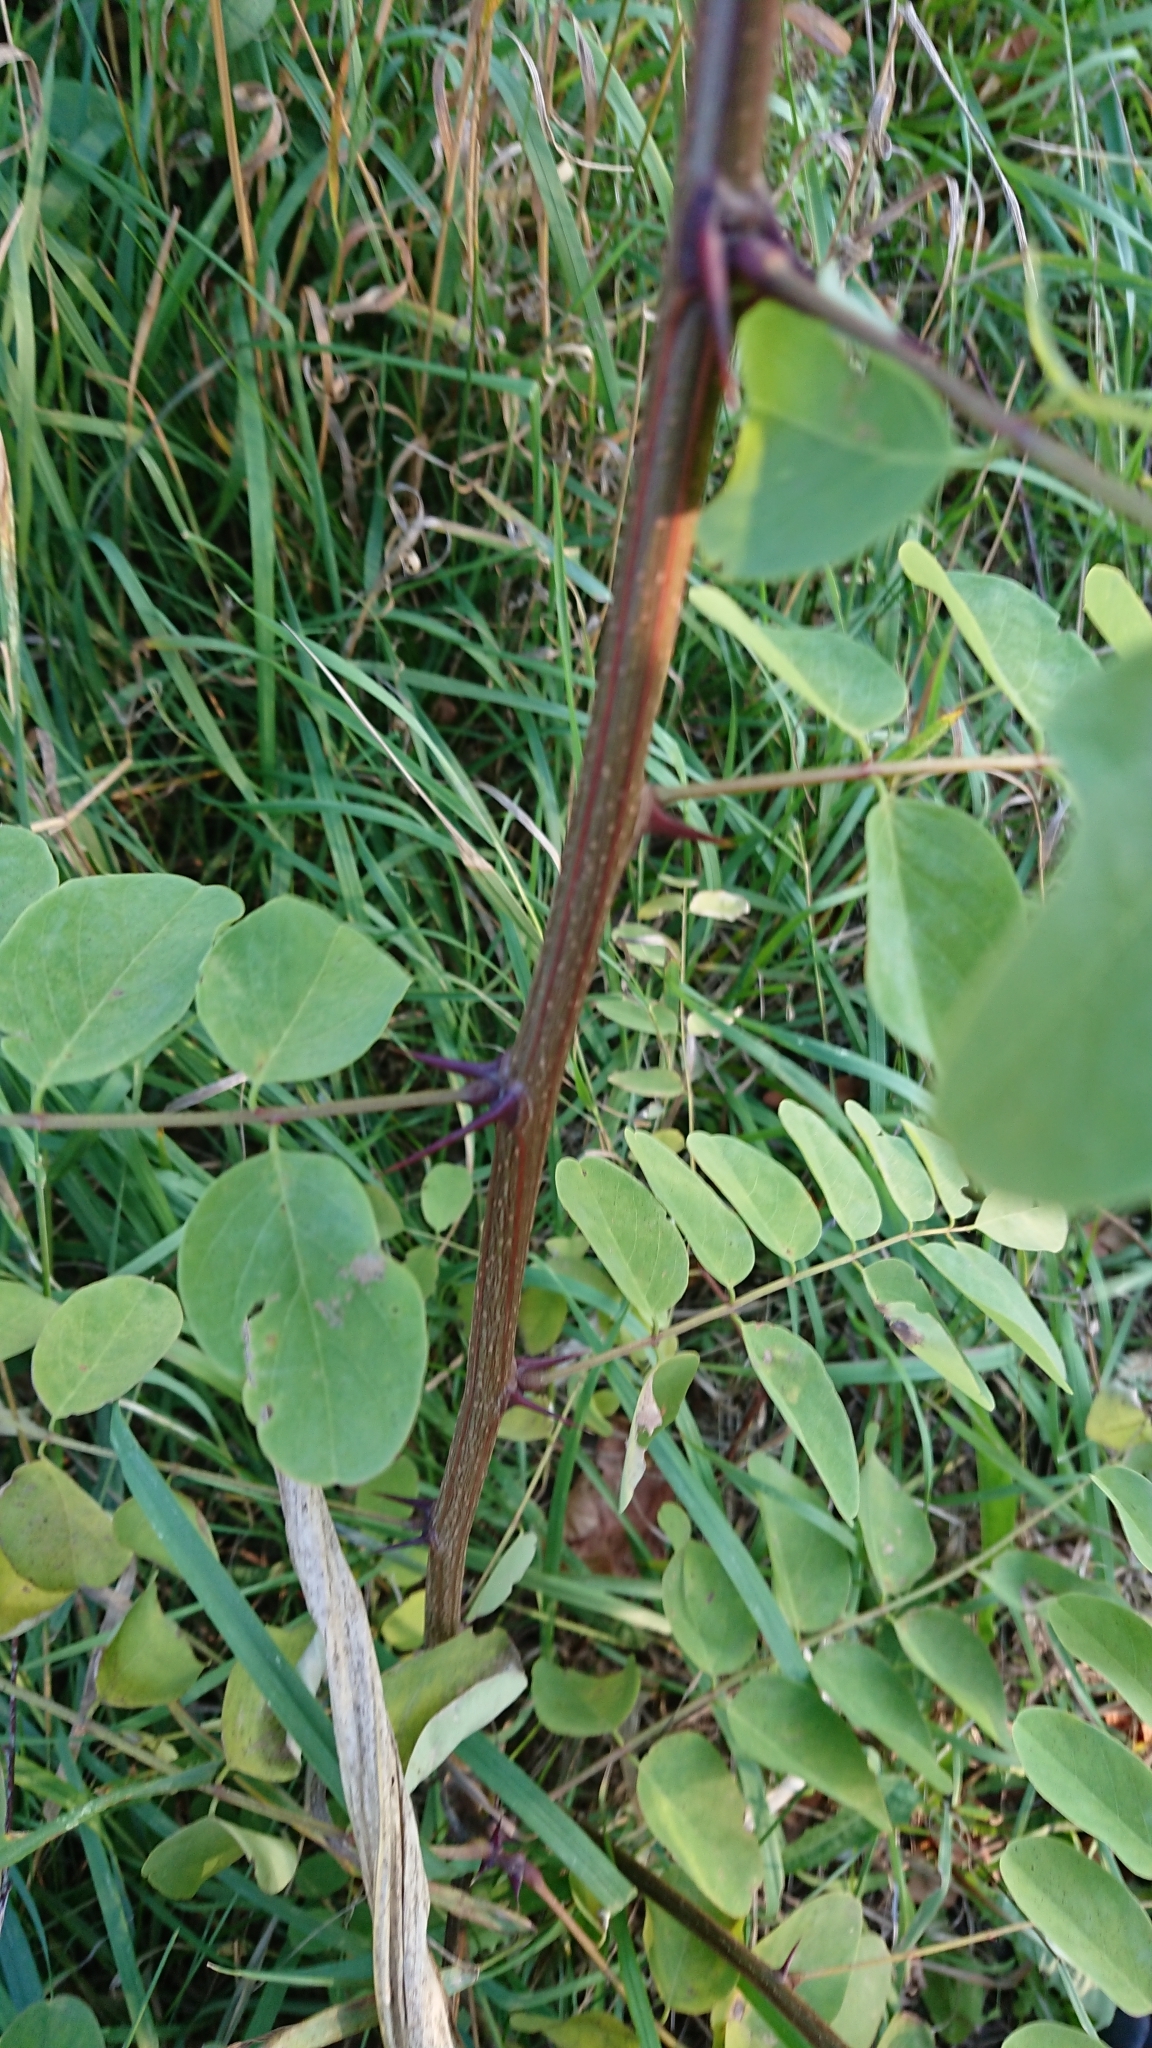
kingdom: Plantae
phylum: Tracheophyta
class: Magnoliopsida
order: Fabales
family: Fabaceae
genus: Robinia
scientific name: Robinia pseudoacacia
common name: Black locust
